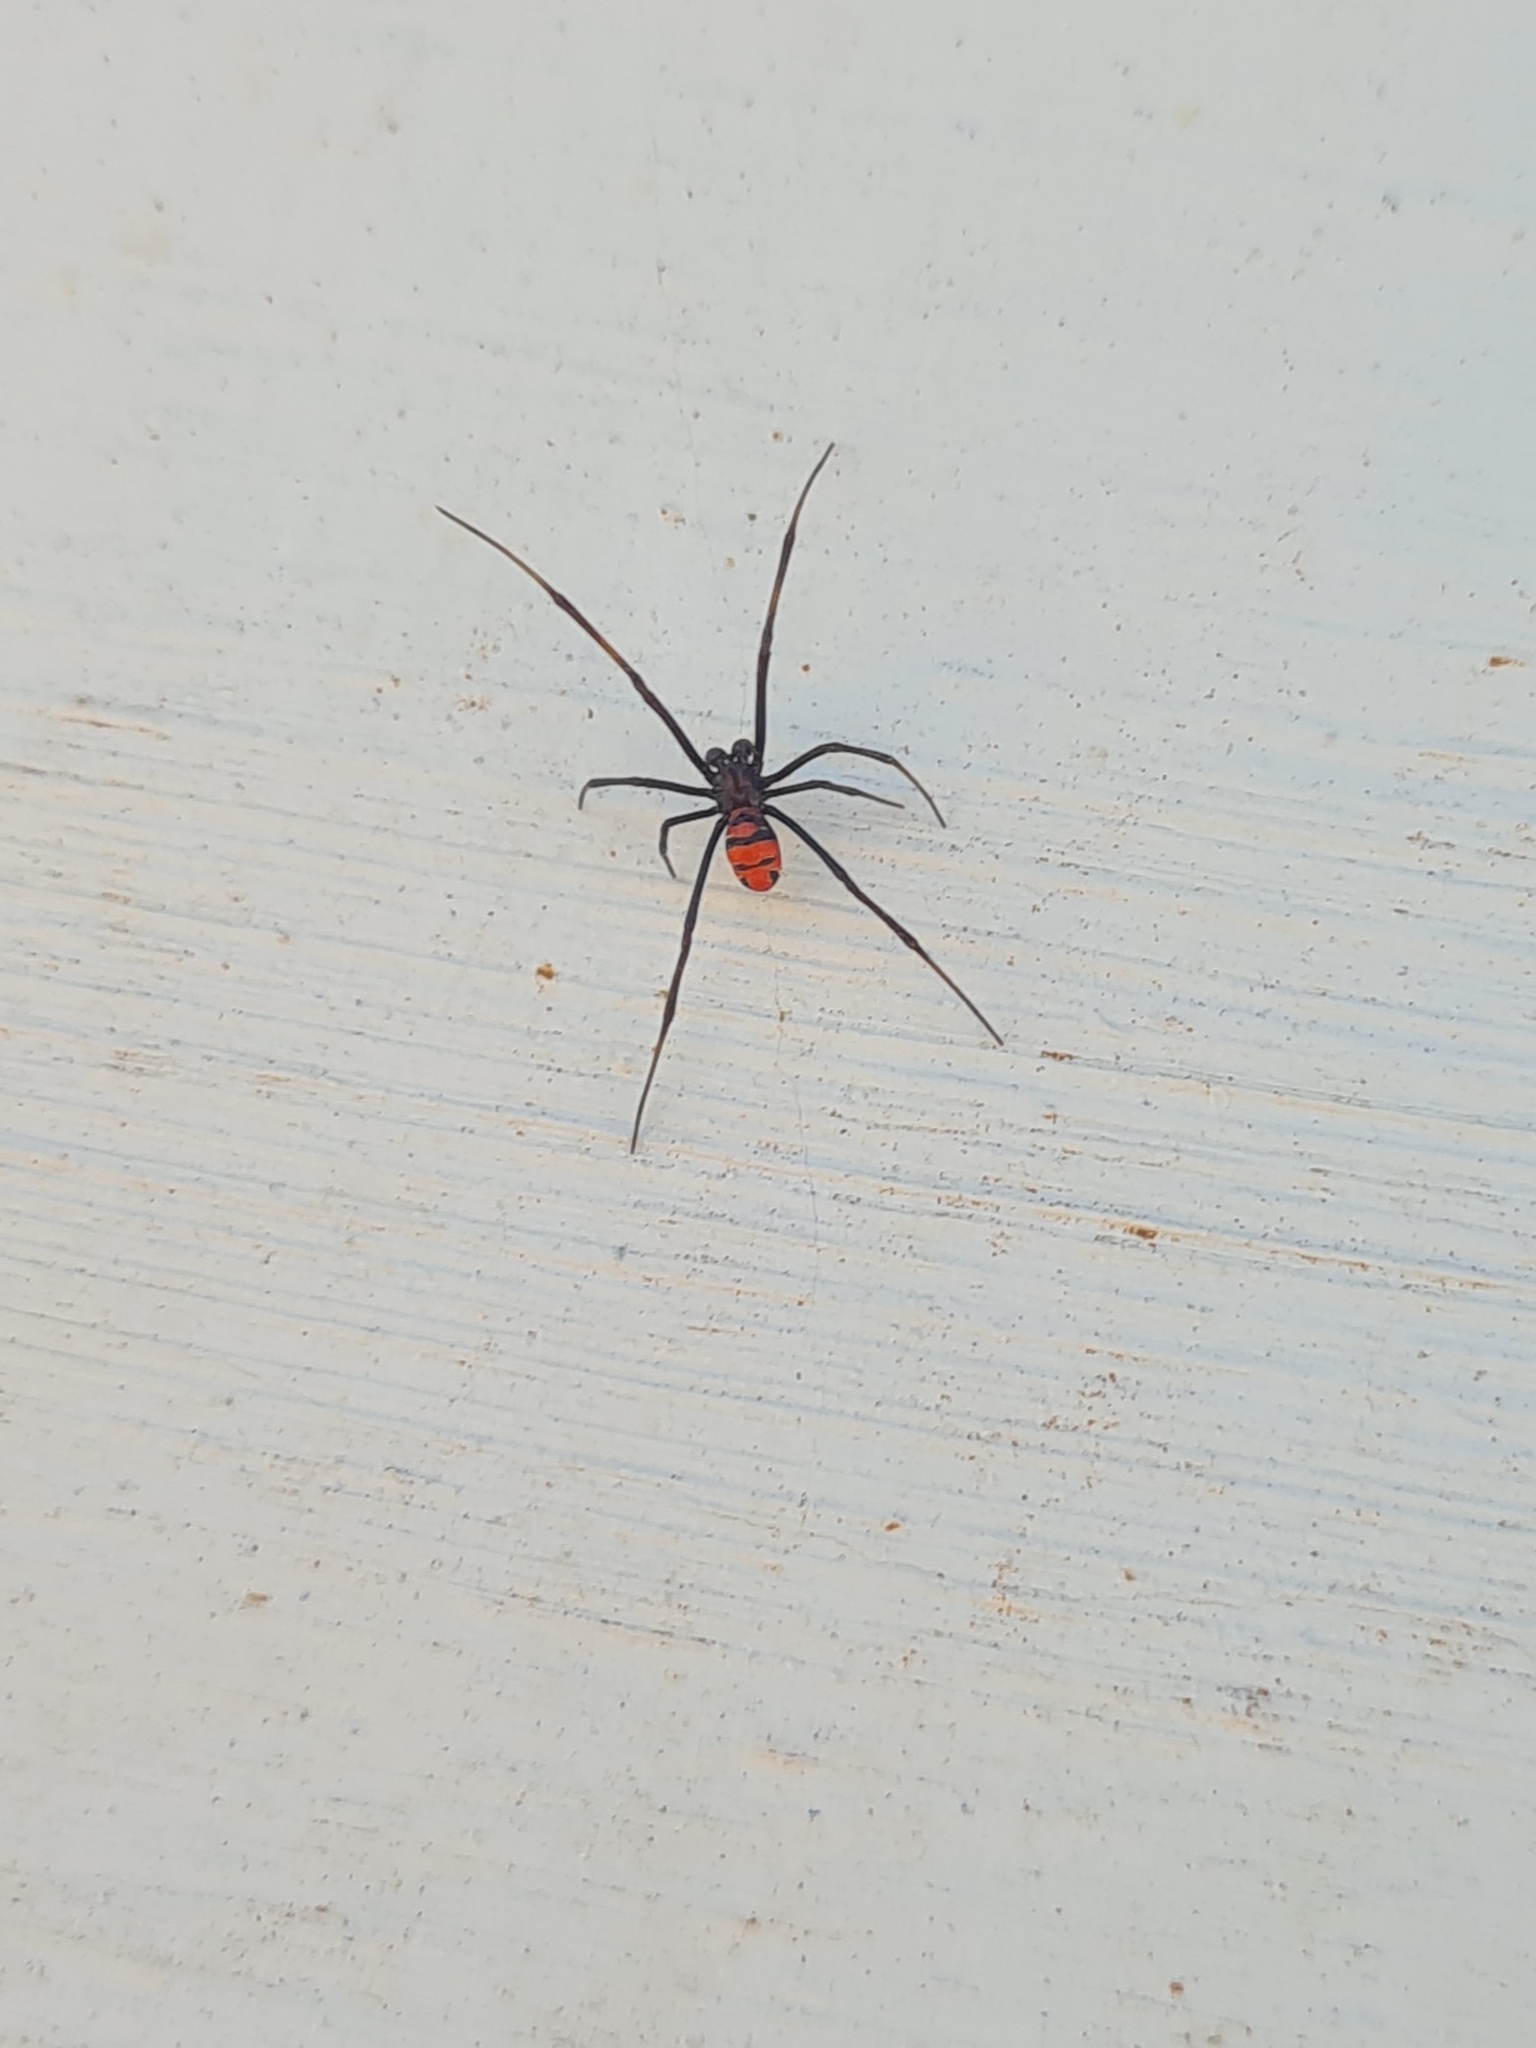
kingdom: Animalia
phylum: Arthropoda
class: Arachnida
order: Araneae
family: Theridiidae
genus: Latrodectus
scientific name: Latrodectus curacaviensis
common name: South american black widow
